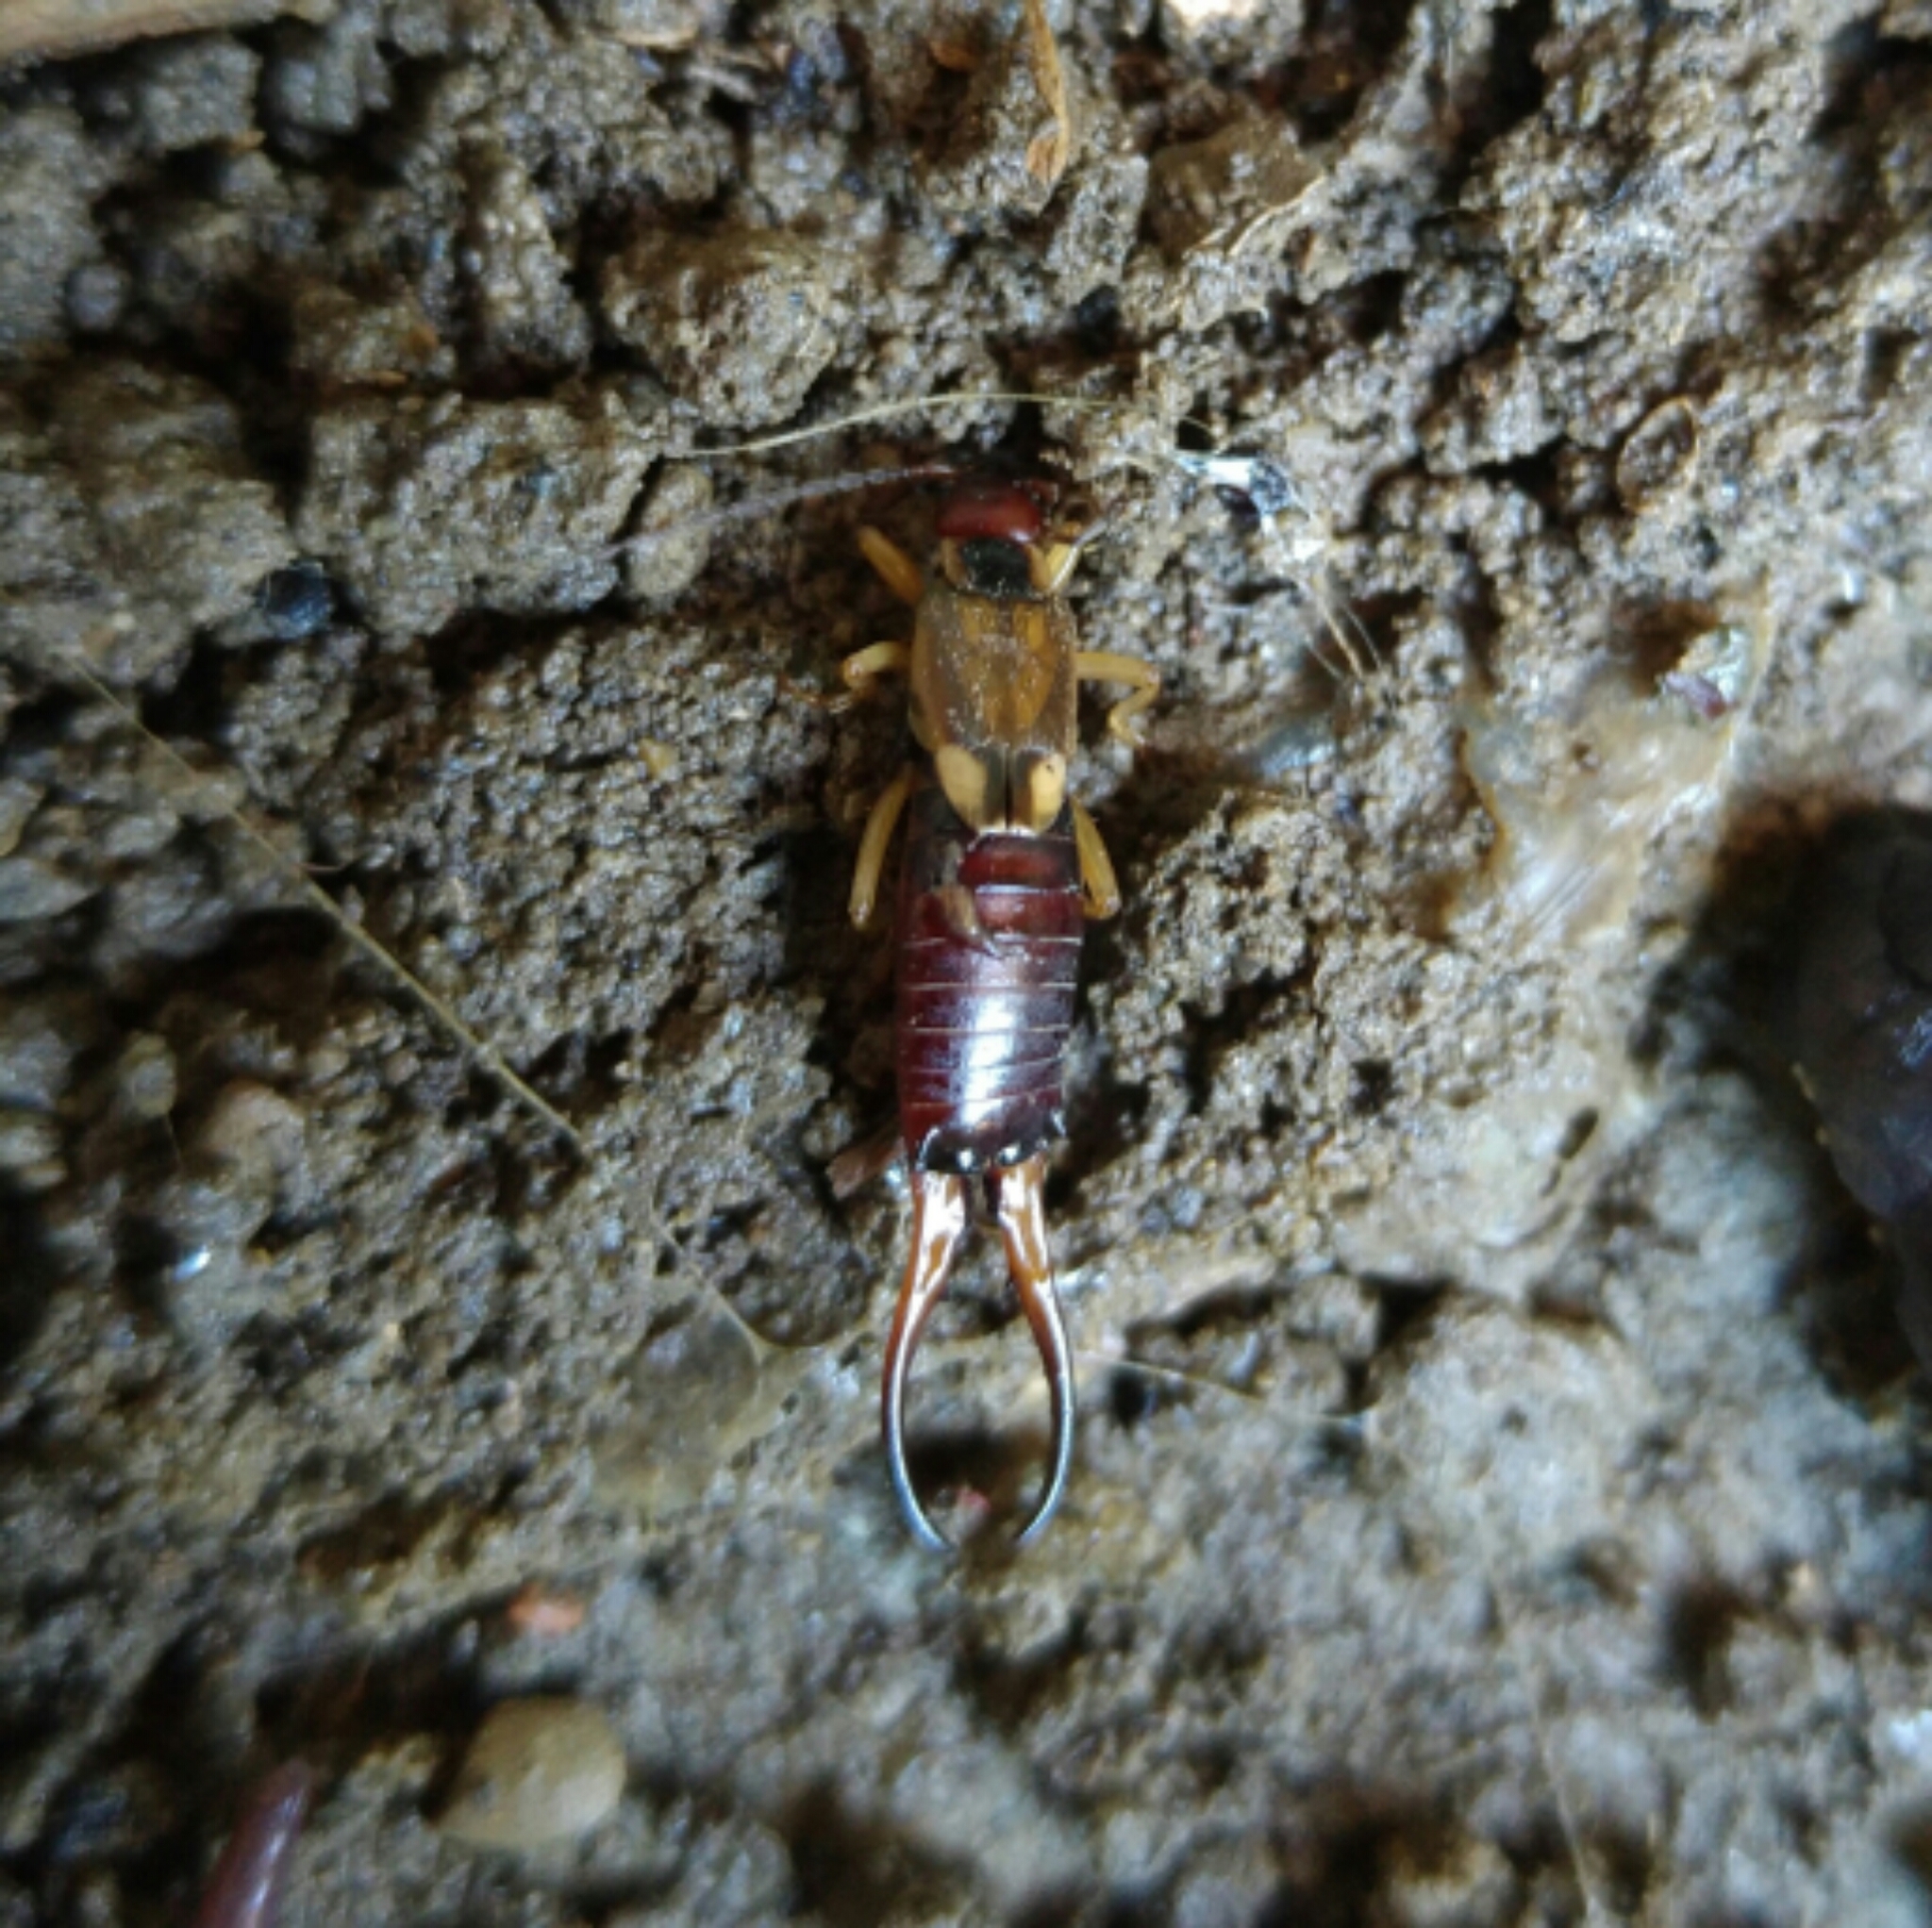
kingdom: Animalia
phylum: Arthropoda
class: Insecta
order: Dermaptera
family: Forficulidae
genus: Forficula
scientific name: Forficula
